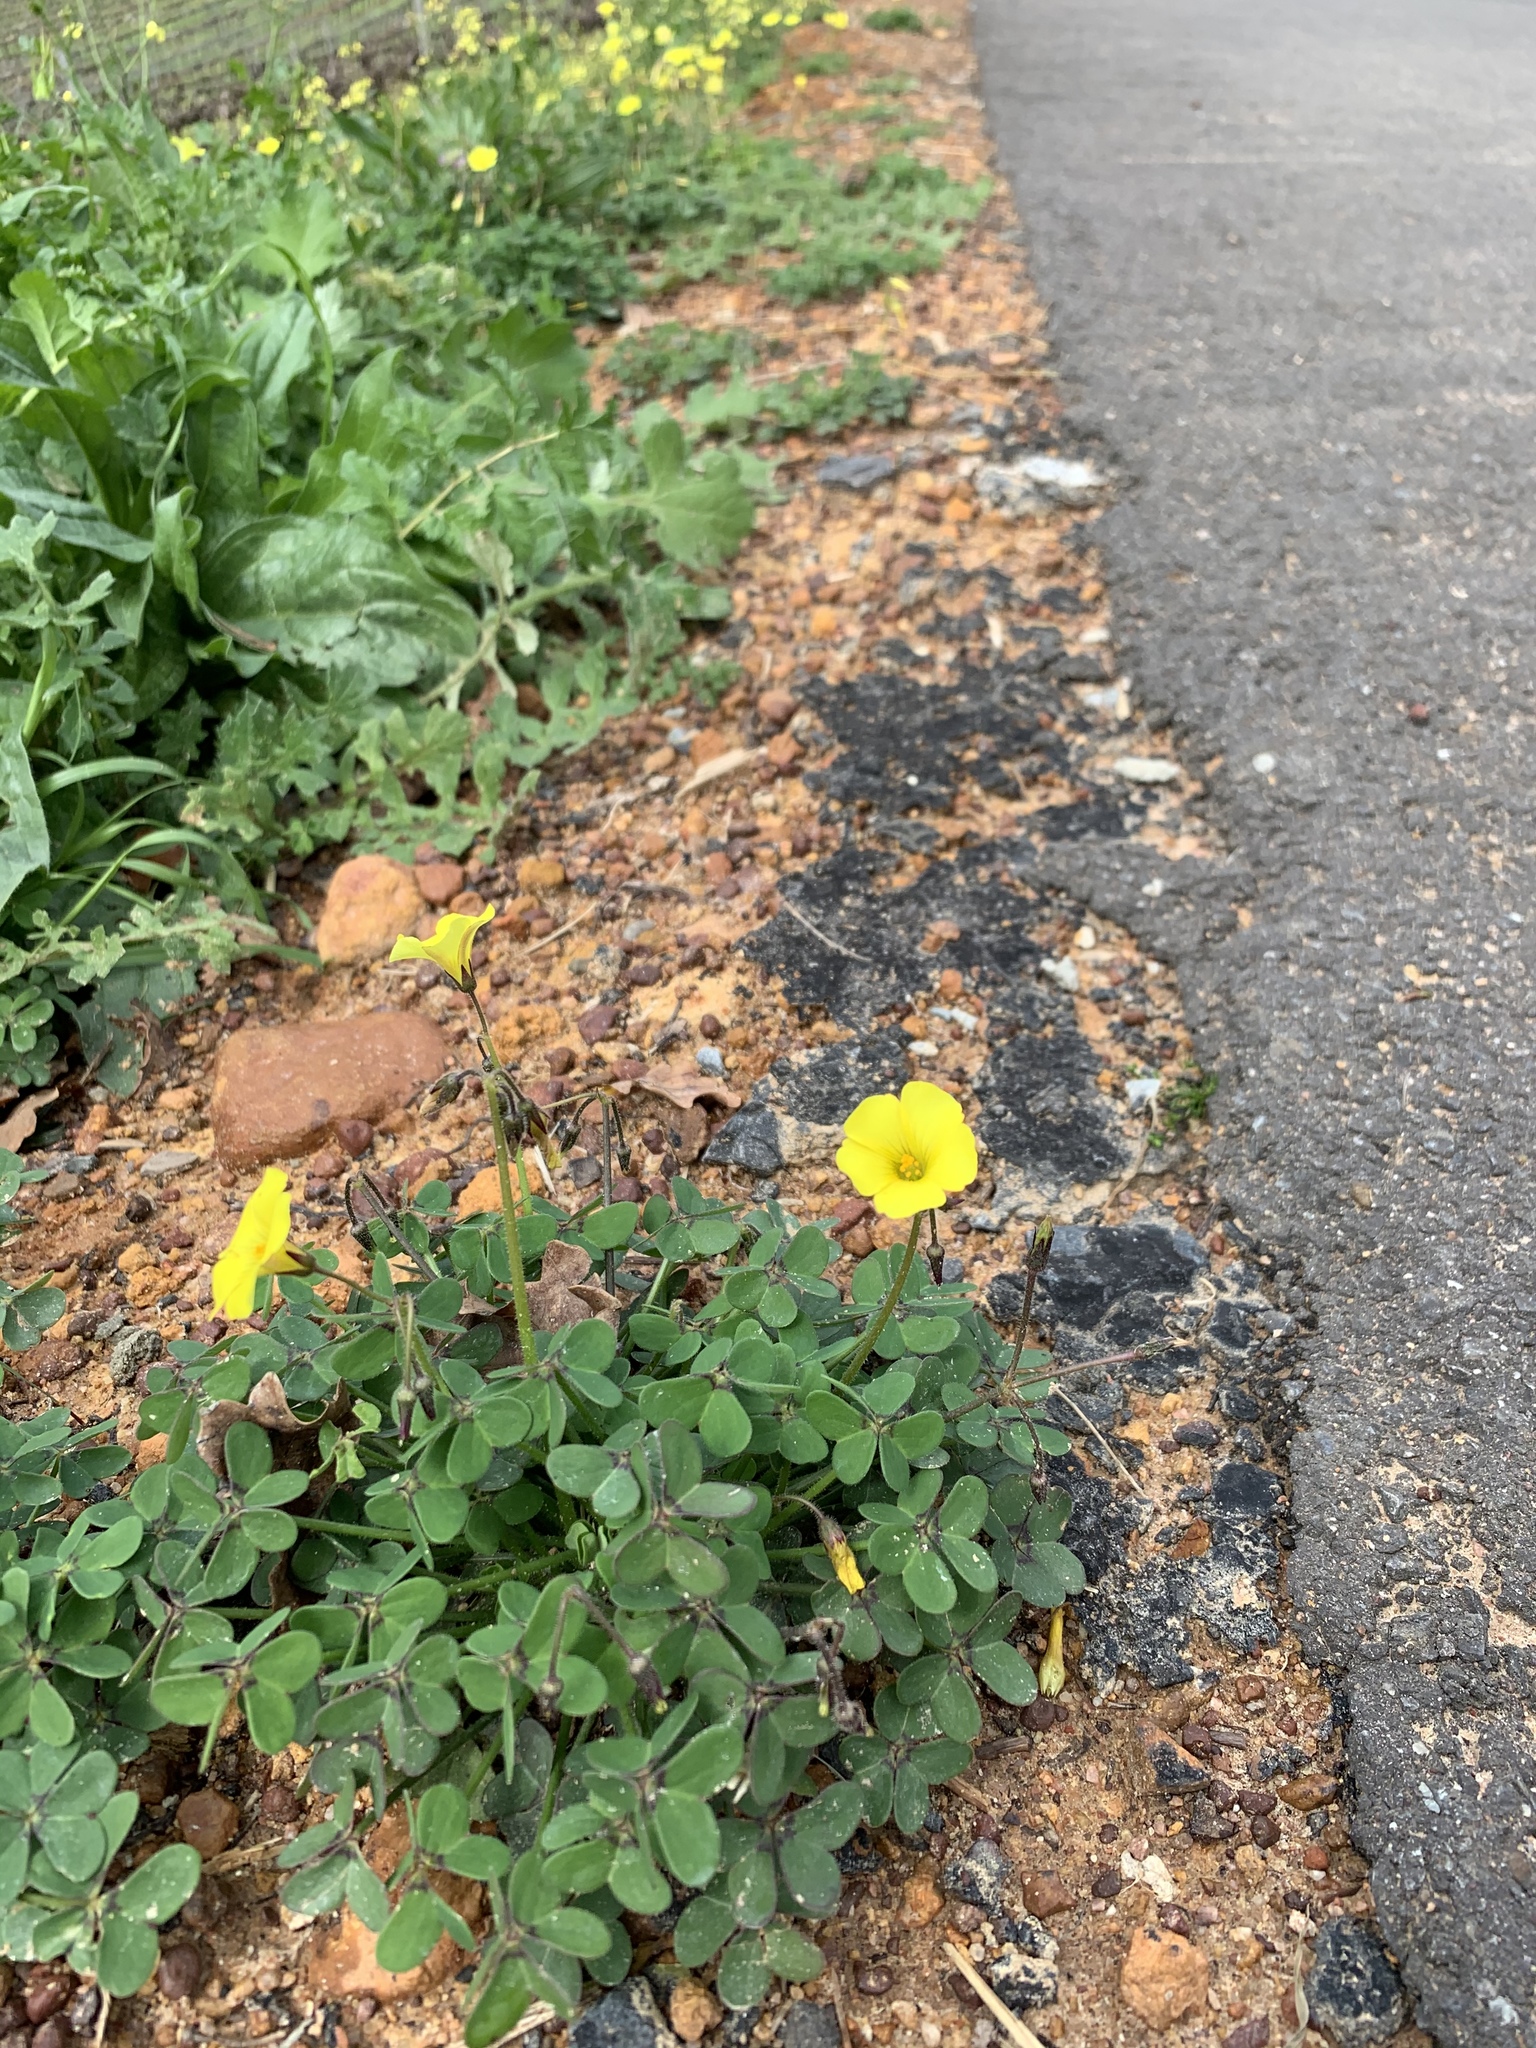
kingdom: Plantae
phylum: Tracheophyta
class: Magnoliopsida
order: Oxalidales
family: Oxalidaceae
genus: Oxalis
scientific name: Oxalis pes-caprae
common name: Bermuda-buttercup
